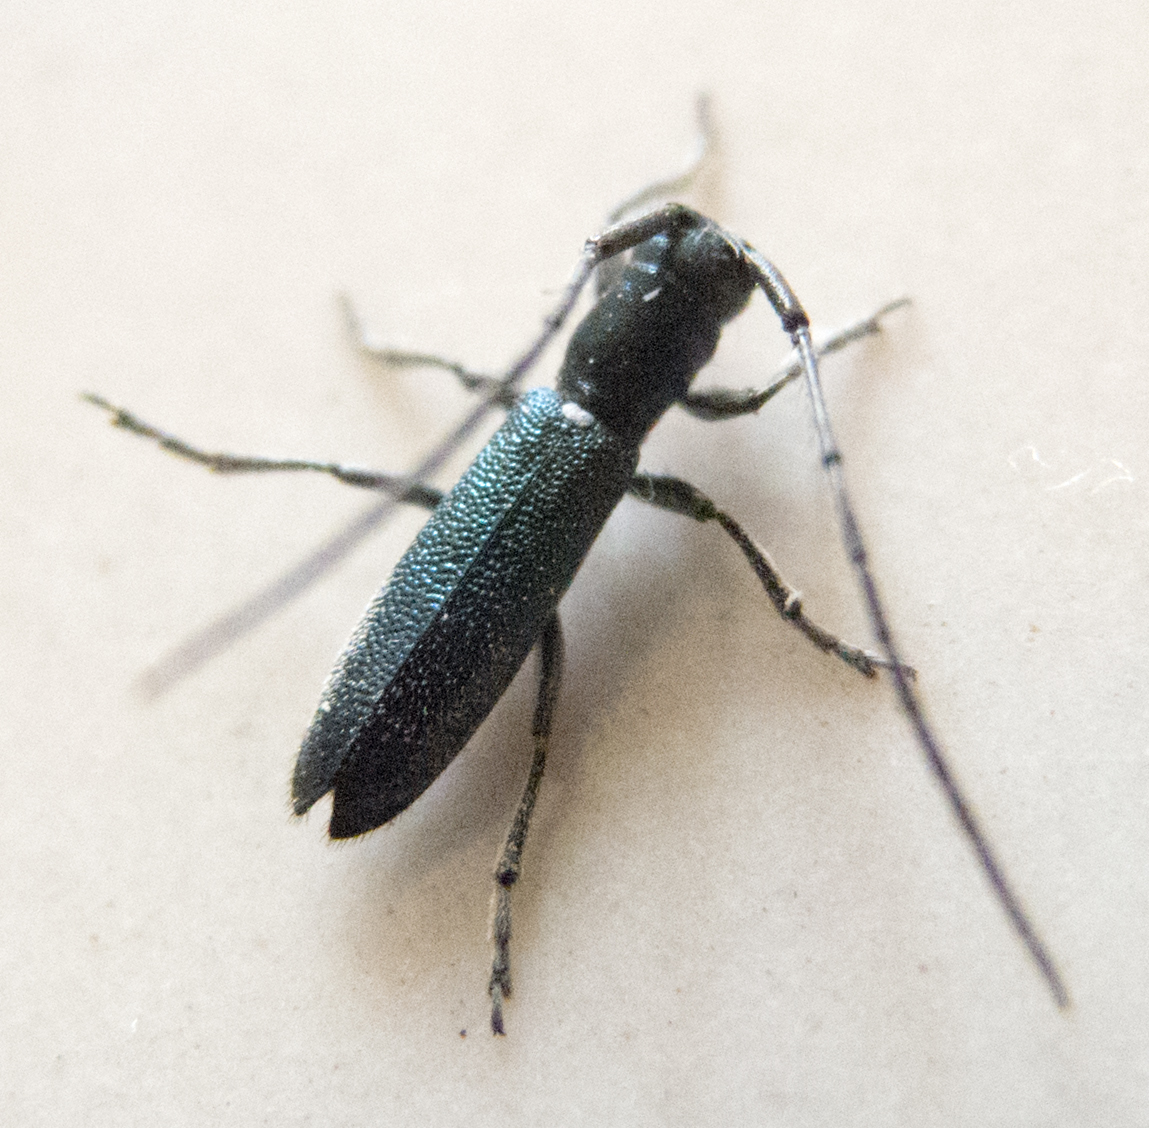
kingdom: Animalia
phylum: Arthropoda
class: Insecta
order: Coleoptera
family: Cerambycidae
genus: Agapanthiola
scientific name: Agapanthiola leucaspis
